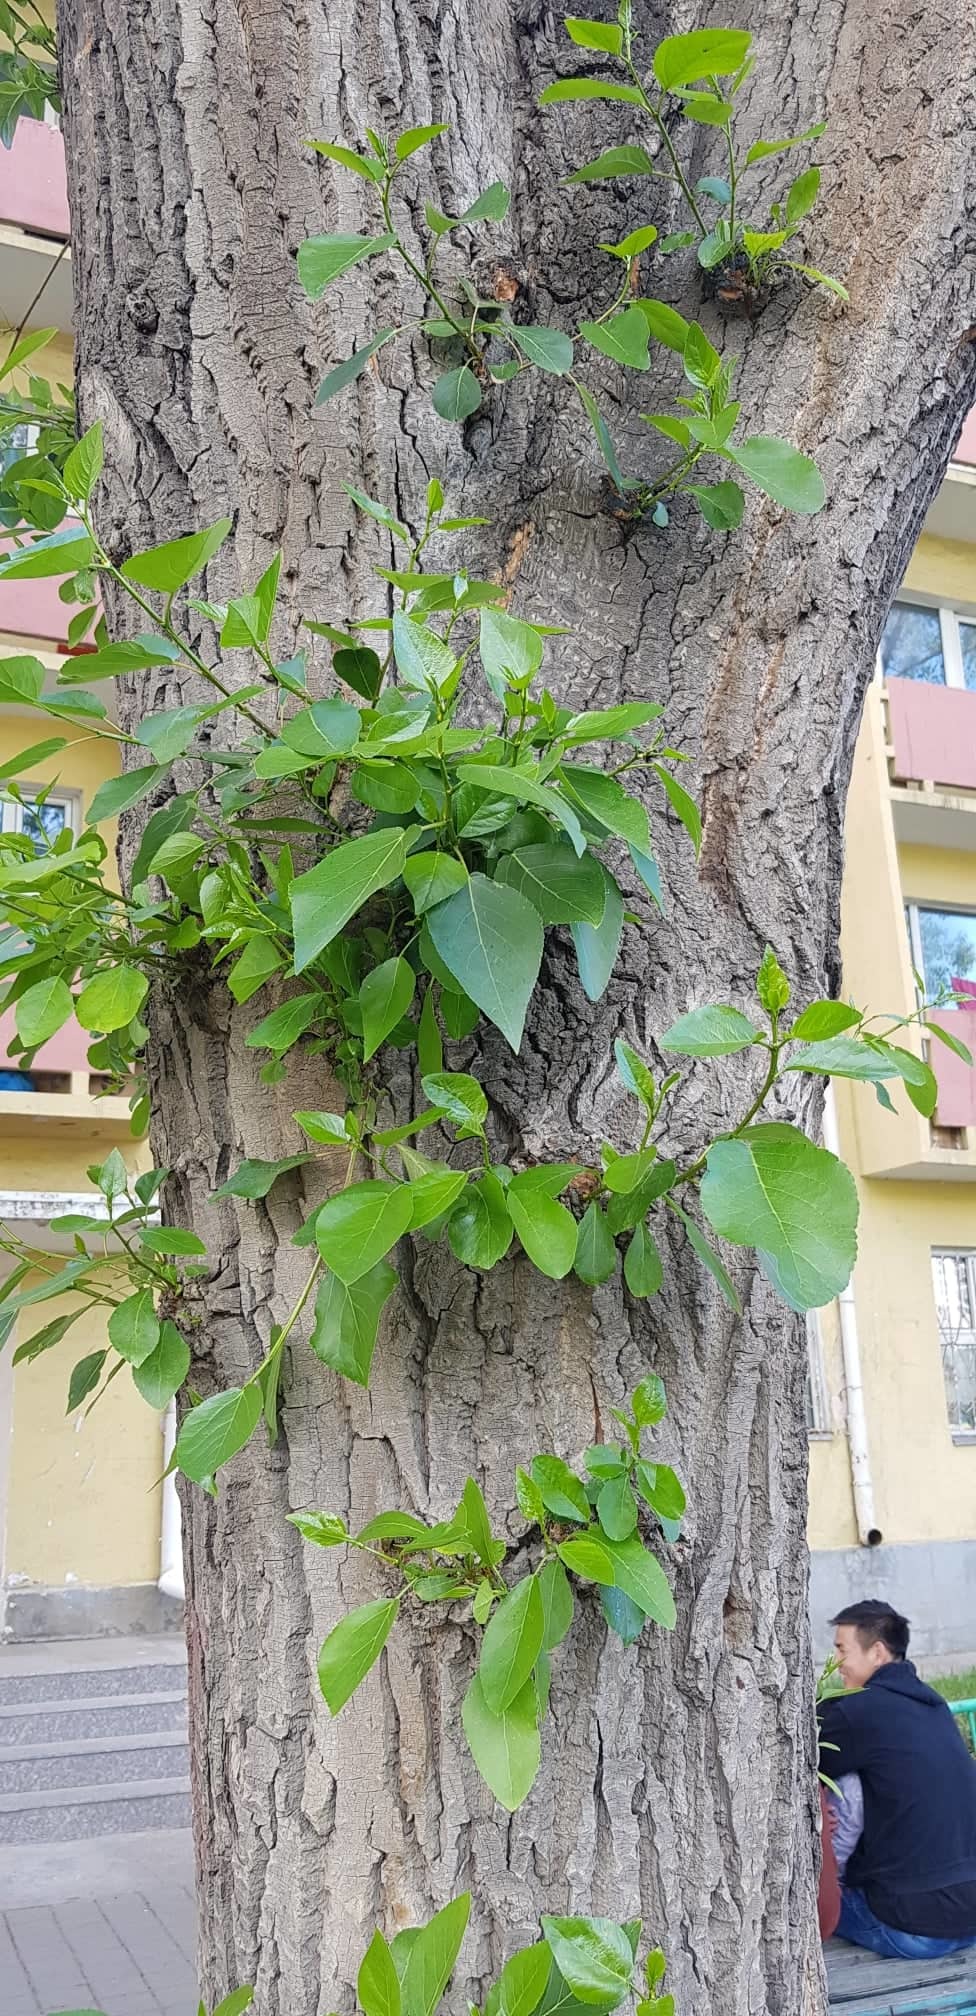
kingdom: Plantae
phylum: Tracheophyta
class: Magnoliopsida
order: Malpighiales
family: Salicaceae
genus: Populus
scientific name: Populus laurifolia
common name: Laurel-leaf poplar
